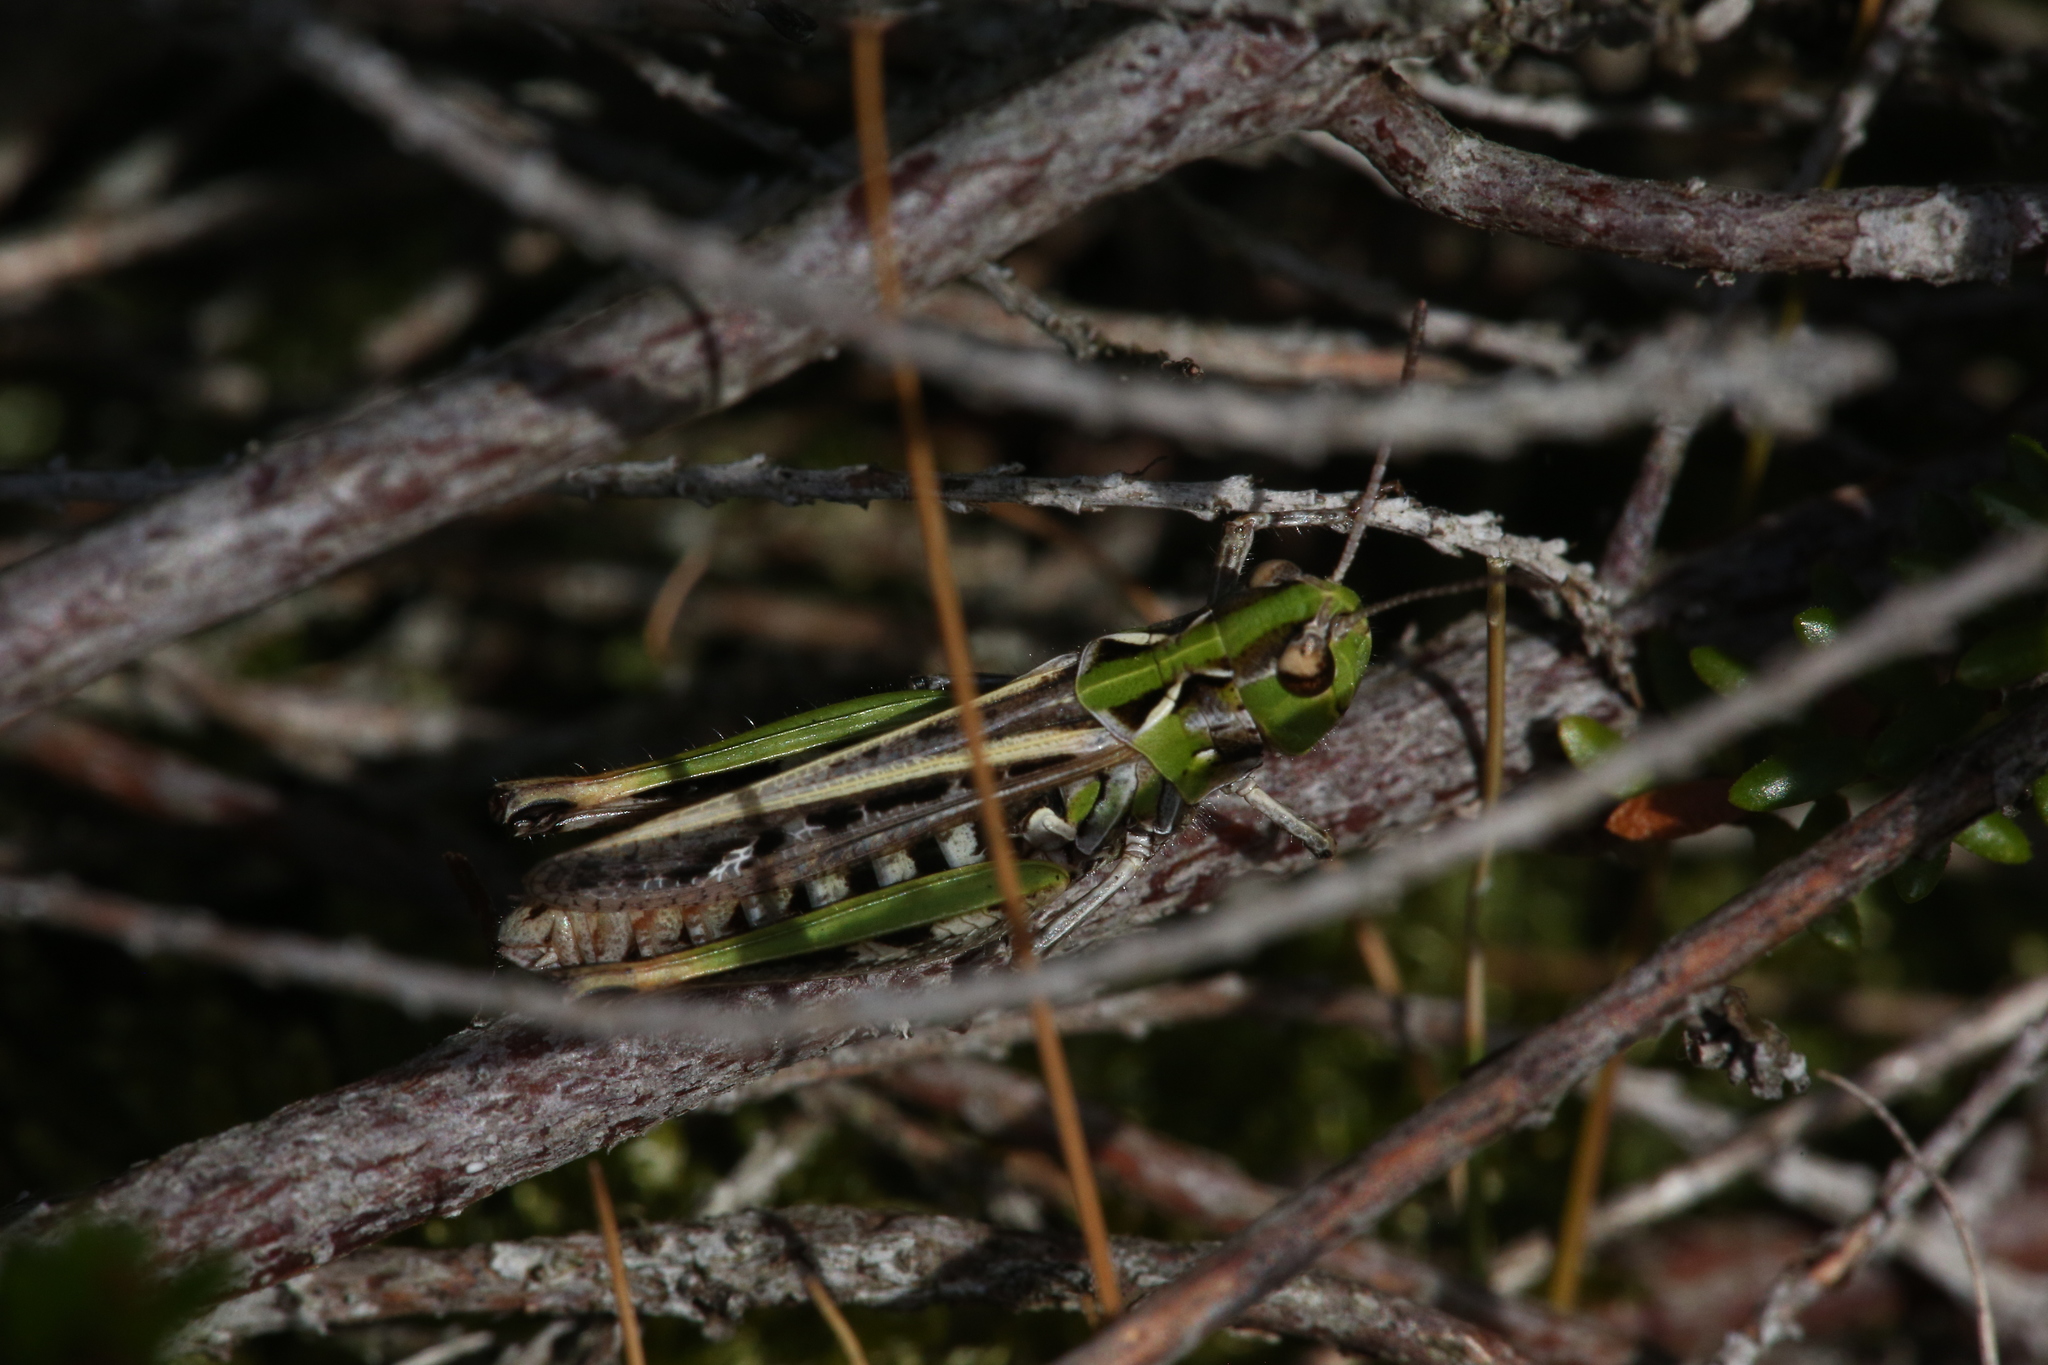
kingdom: Animalia
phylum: Arthropoda
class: Insecta
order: Orthoptera
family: Acrididae
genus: Myrmeleotettix
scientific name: Myrmeleotettix maculatus
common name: Mottled grasshopper
